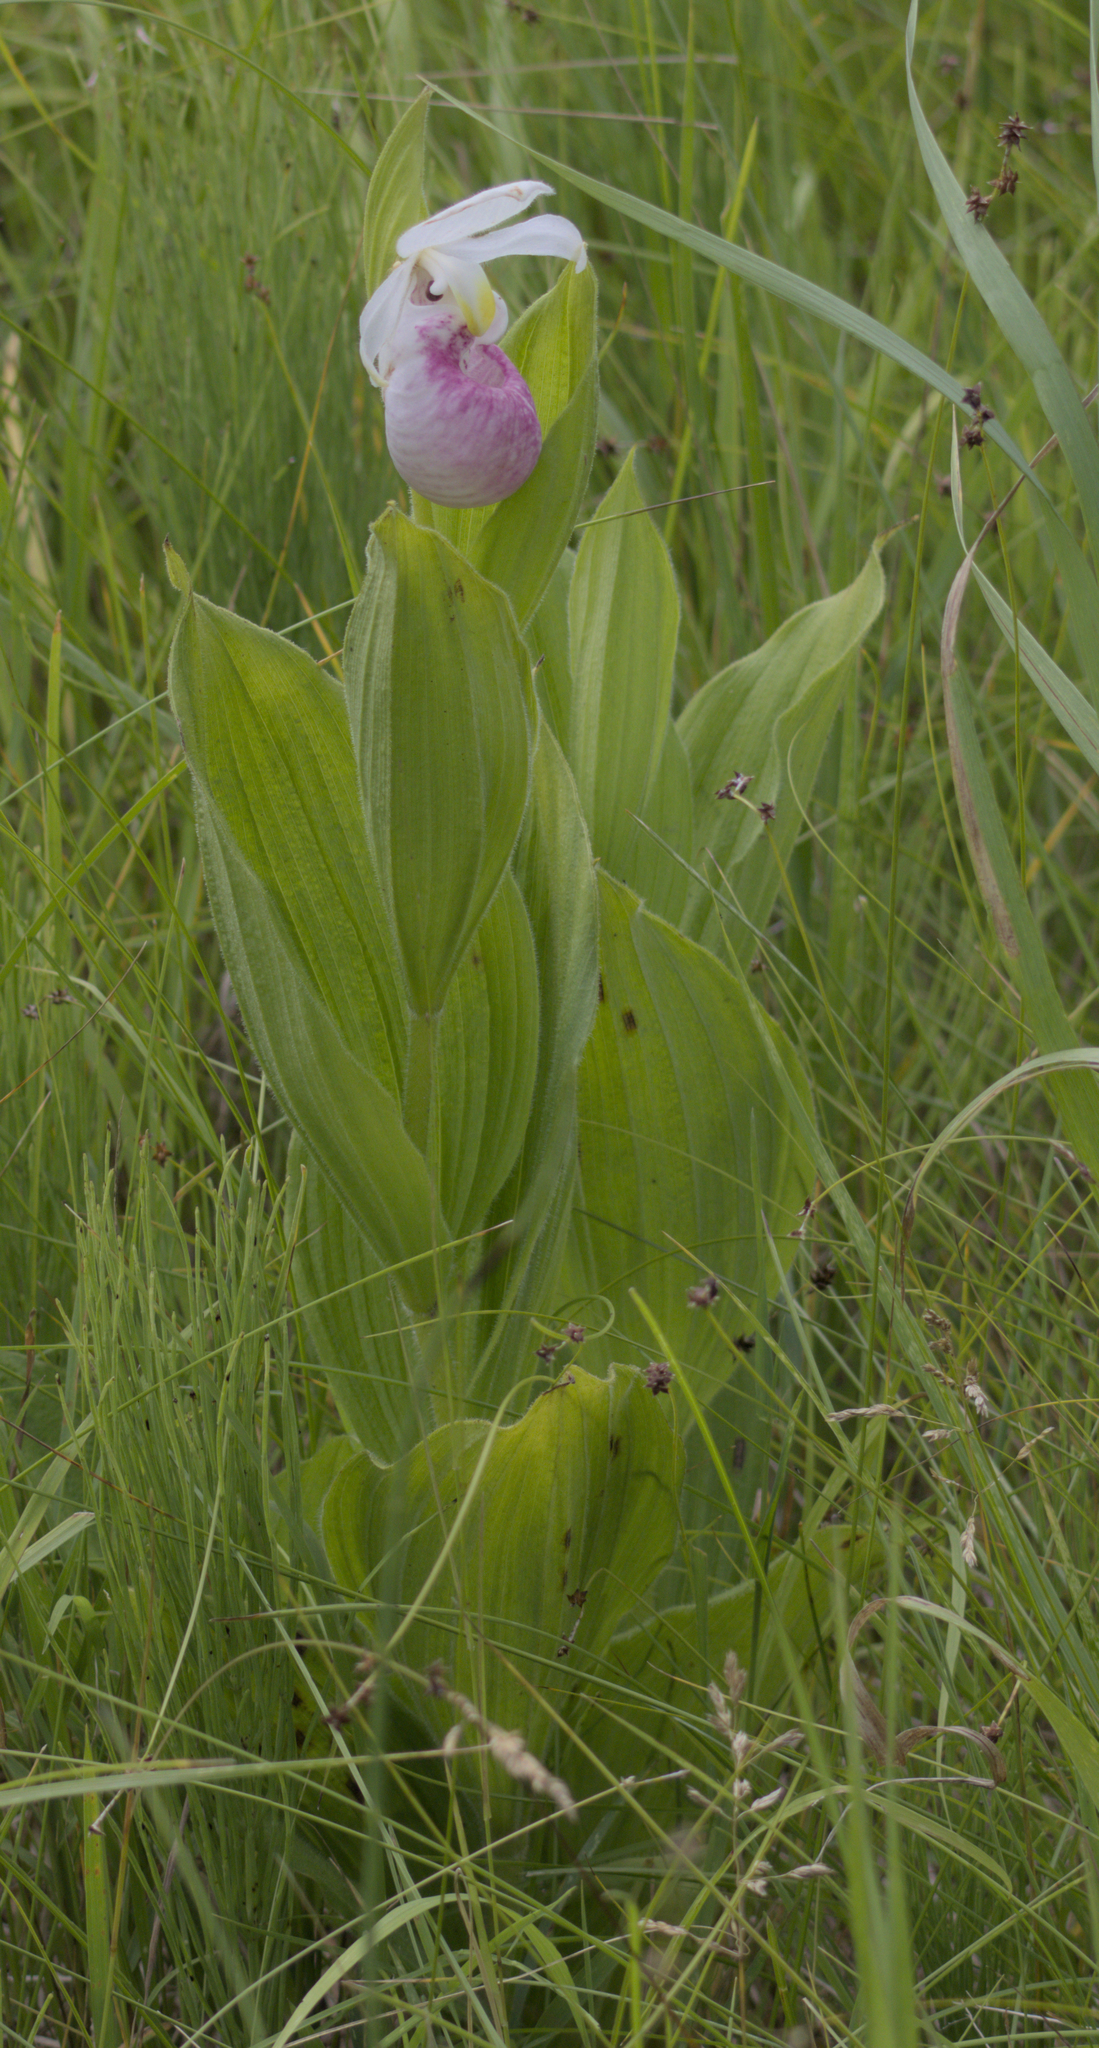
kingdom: Plantae
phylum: Tracheophyta
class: Liliopsida
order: Asparagales
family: Orchidaceae
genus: Cypripedium
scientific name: Cypripedium reginae
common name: Queen lady's-slipper
